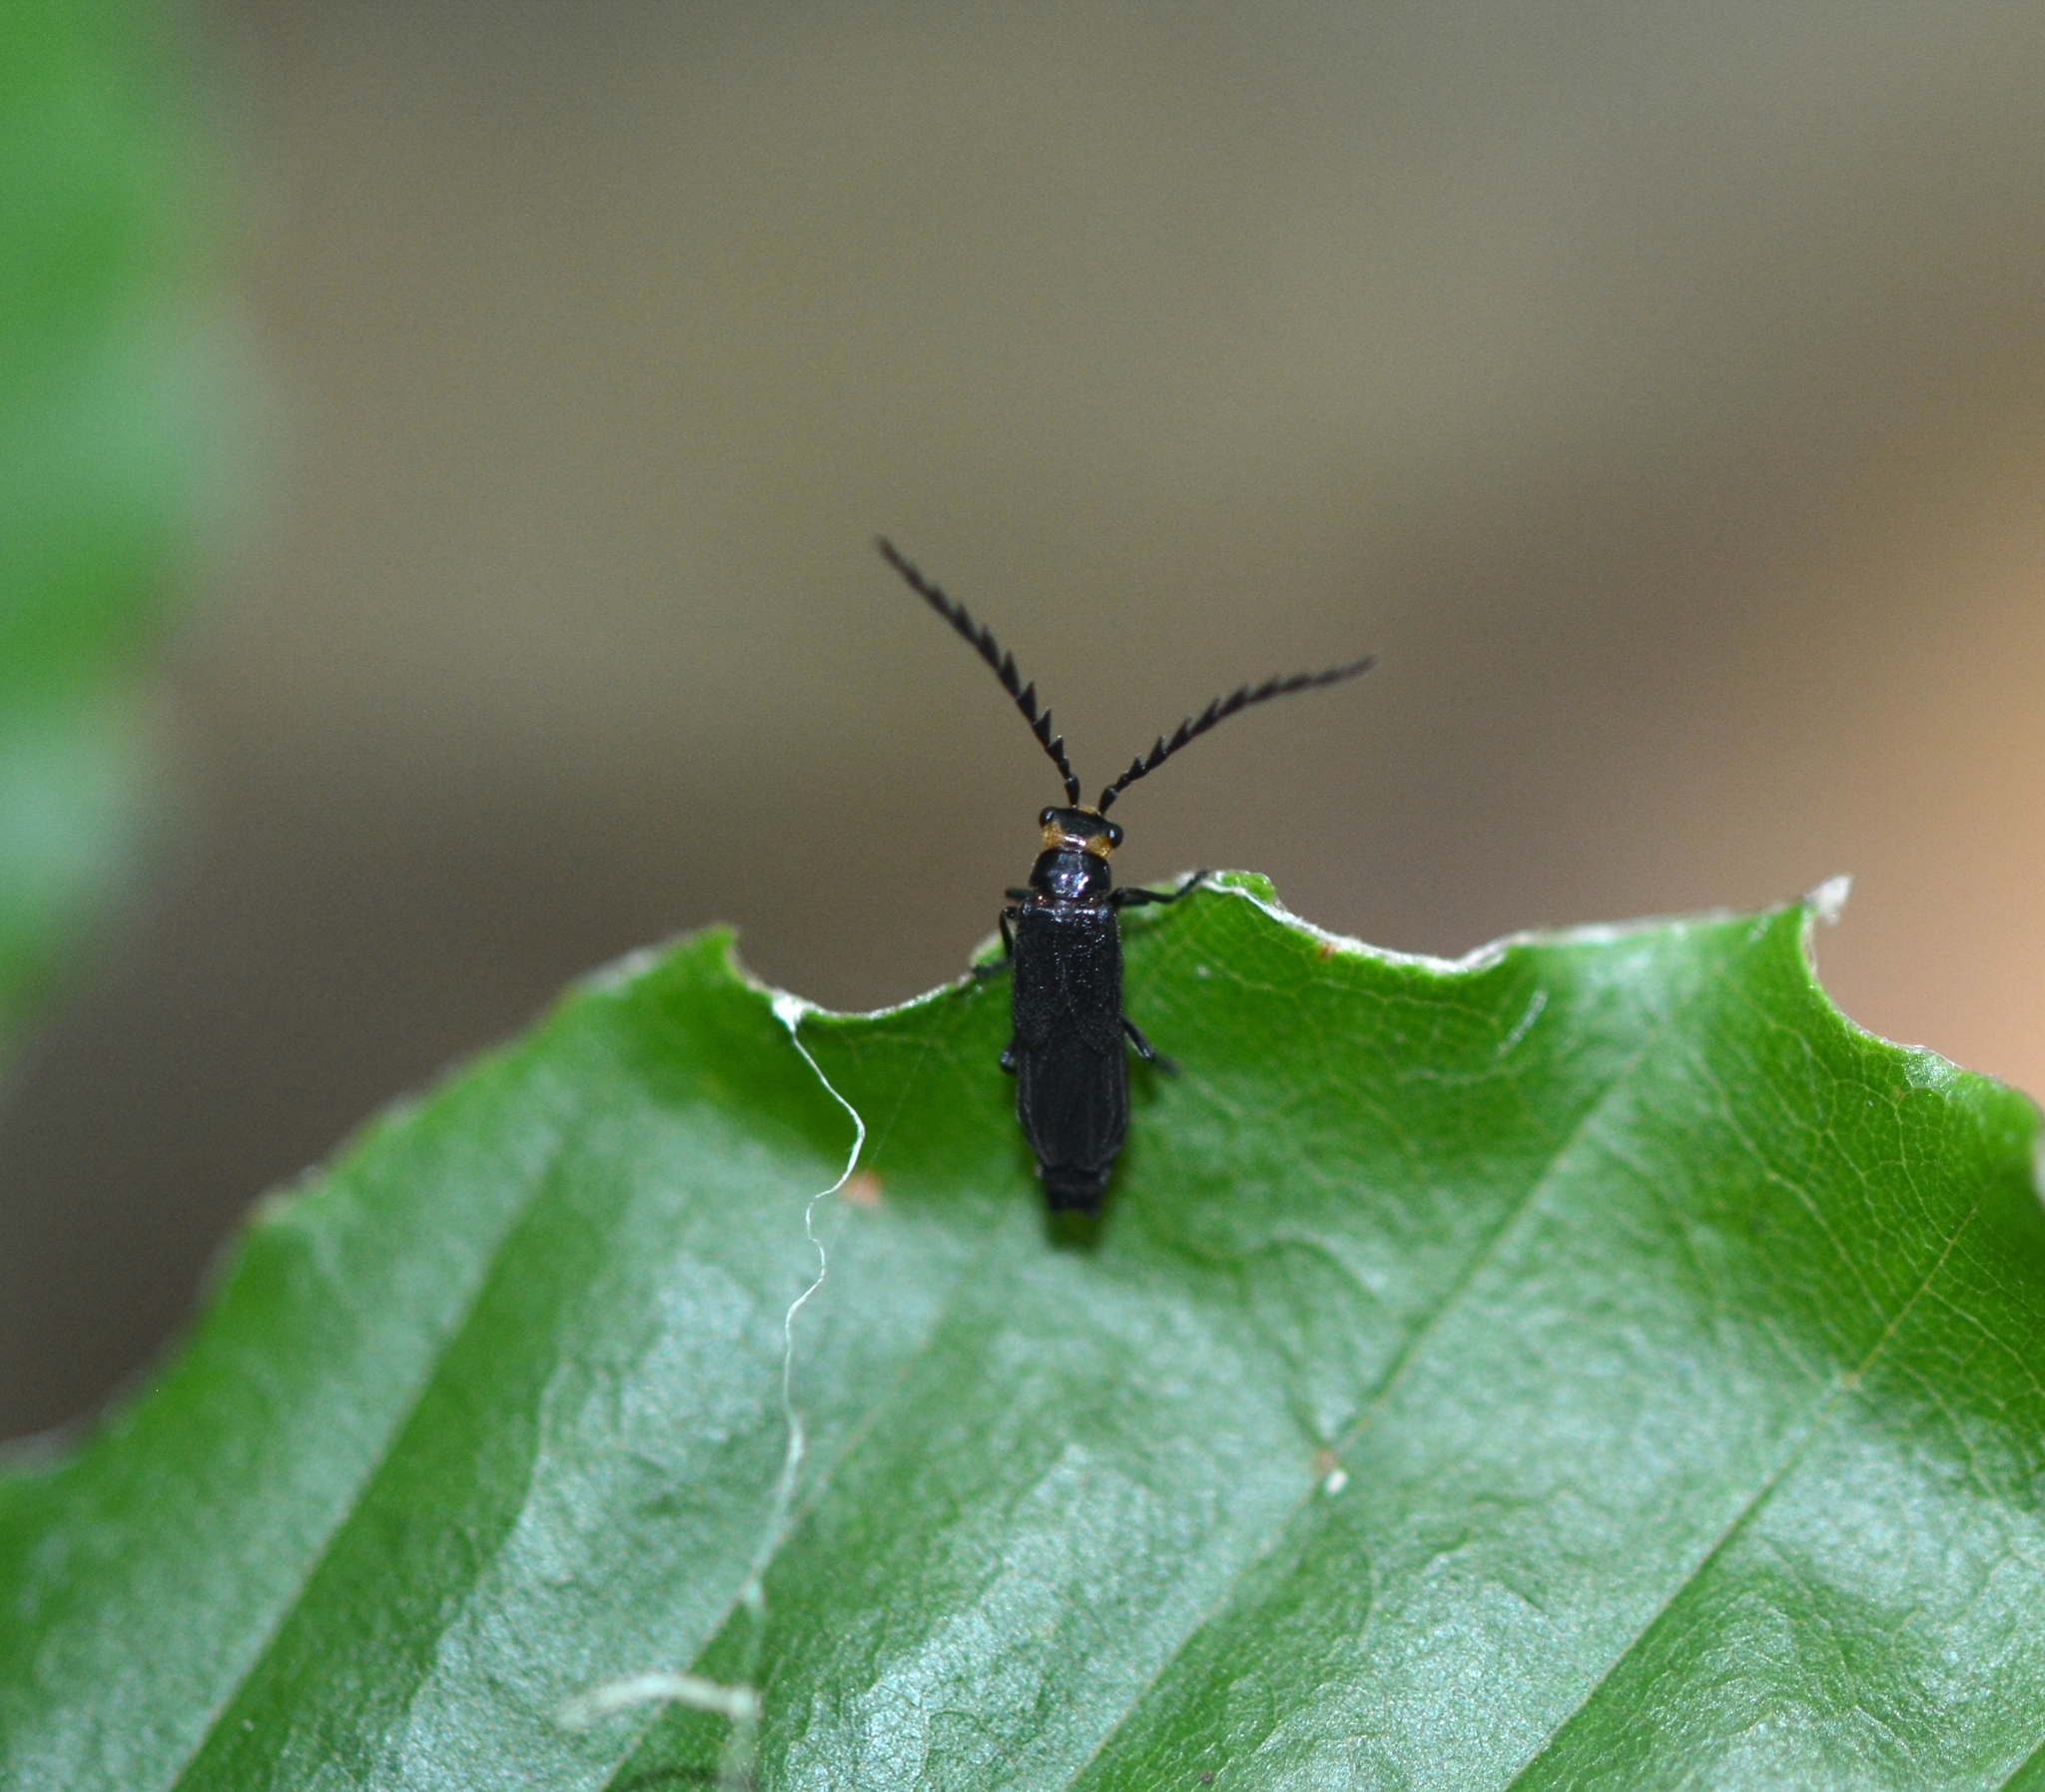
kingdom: Animalia
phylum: Arthropoda
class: Insecta
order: Coleoptera
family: Cantharidae
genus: Tytthonyx
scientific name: Tytthonyx erythrocephalus
